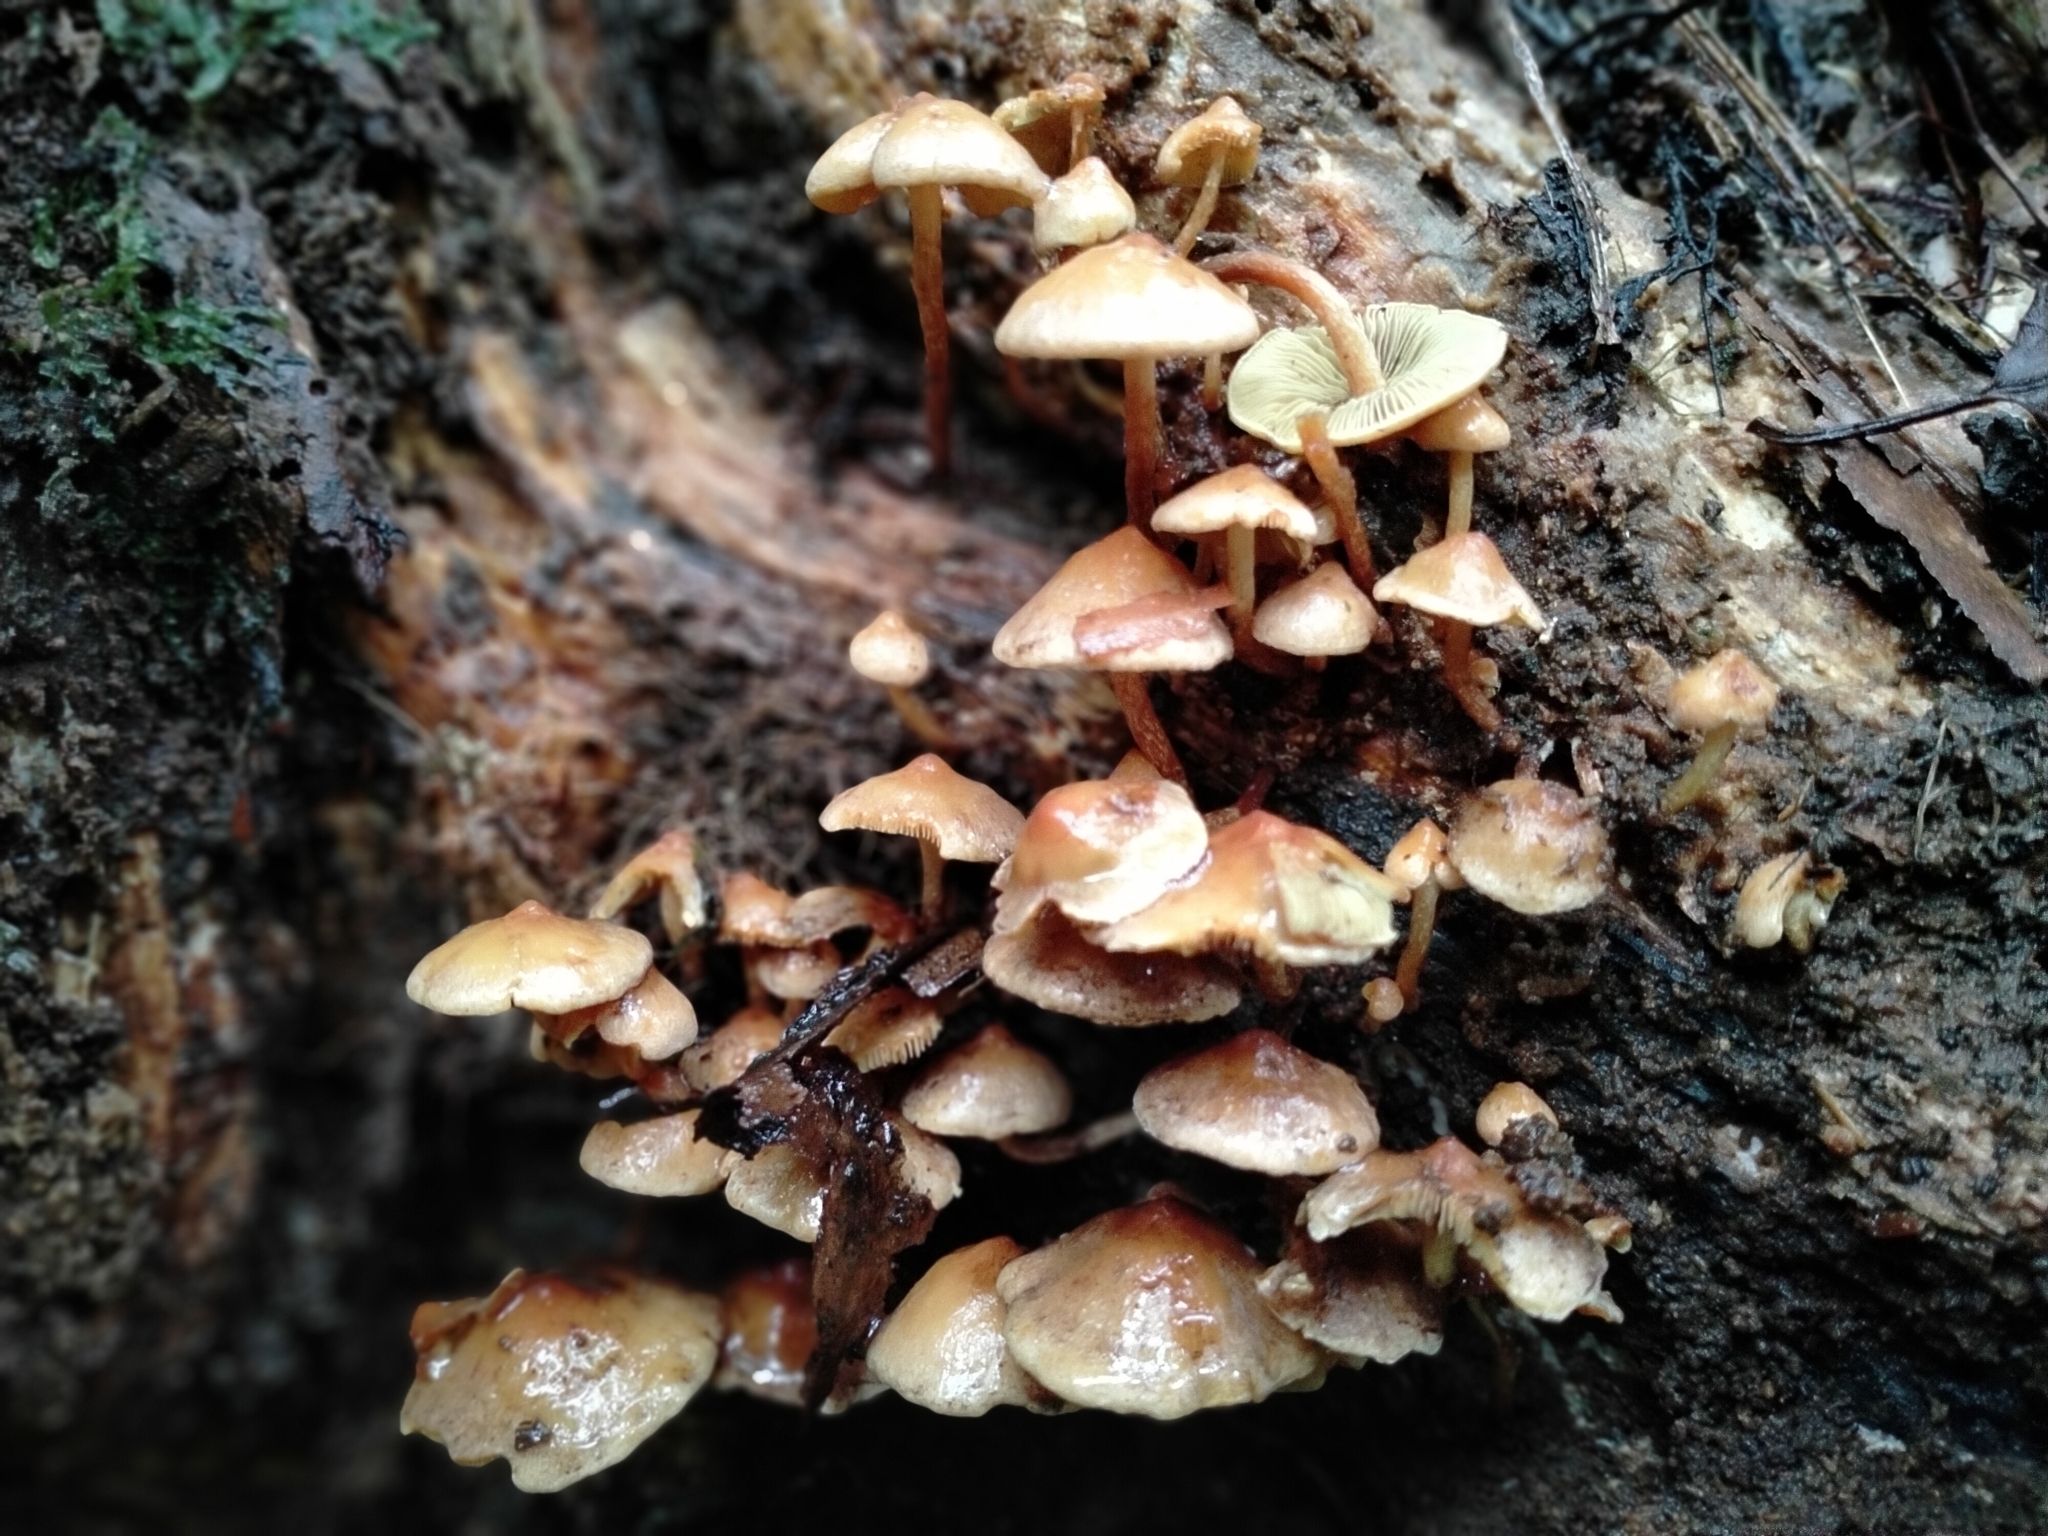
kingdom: Fungi
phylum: Basidiomycota
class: Agaricomycetes
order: Agaricales
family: Strophariaceae
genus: Hypholoma
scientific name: Hypholoma acutum
